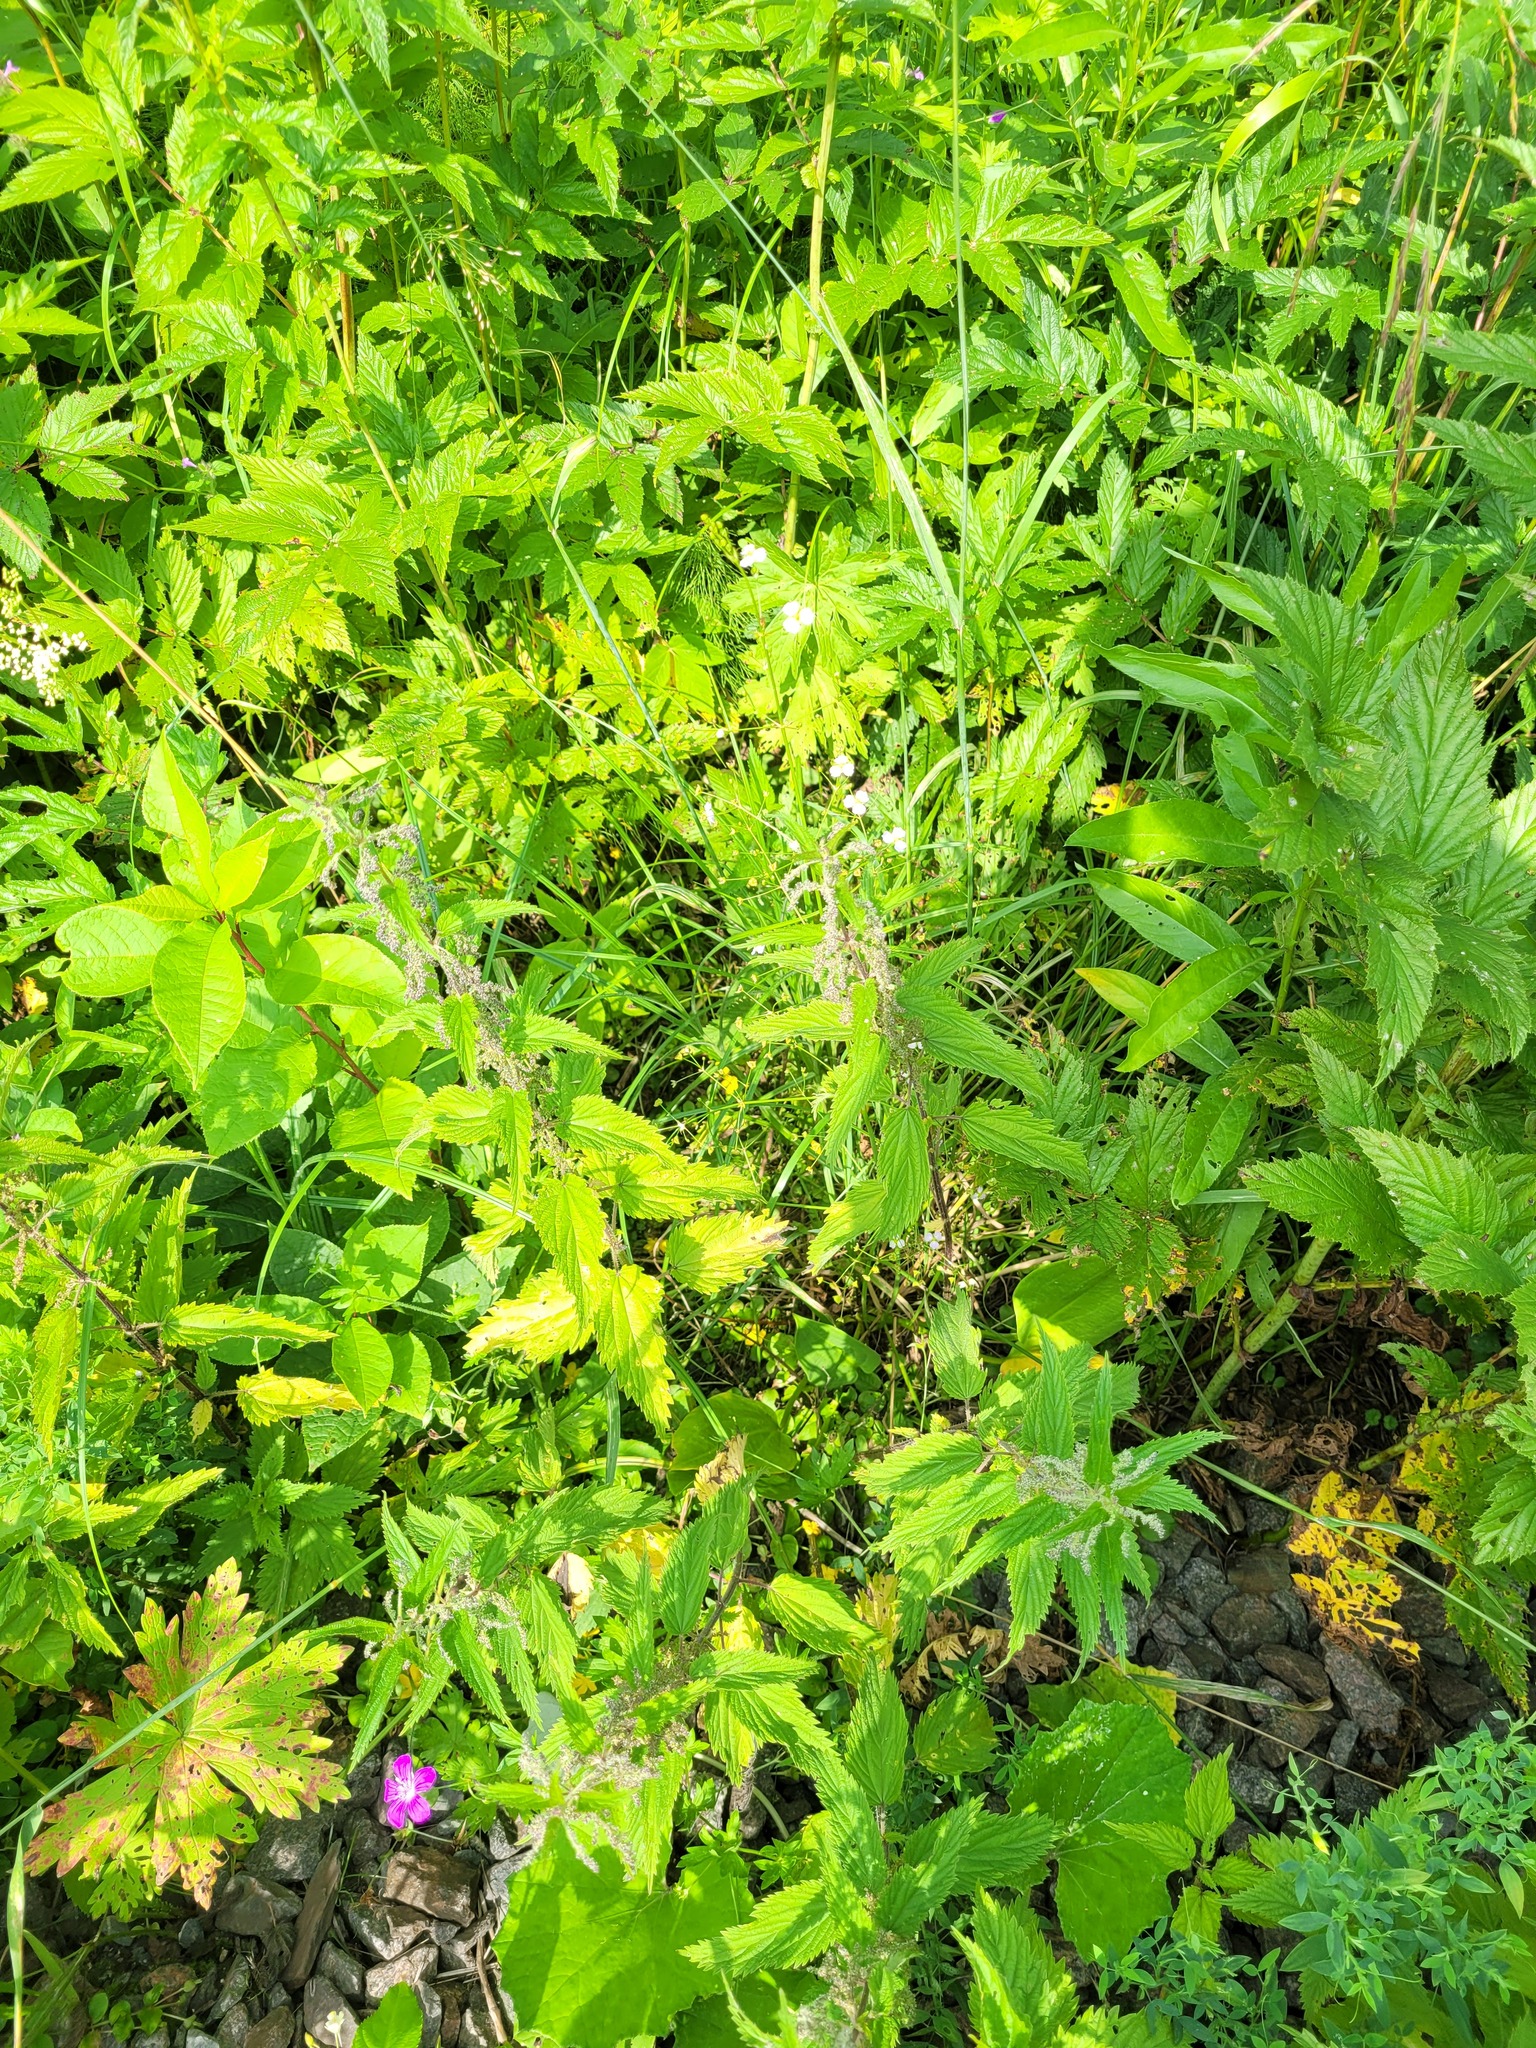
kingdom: Plantae
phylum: Tracheophyta
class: Magnoliopsida
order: Rosales
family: Urticaceae
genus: Urtica
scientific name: Urtica dioica
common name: Common nettle
